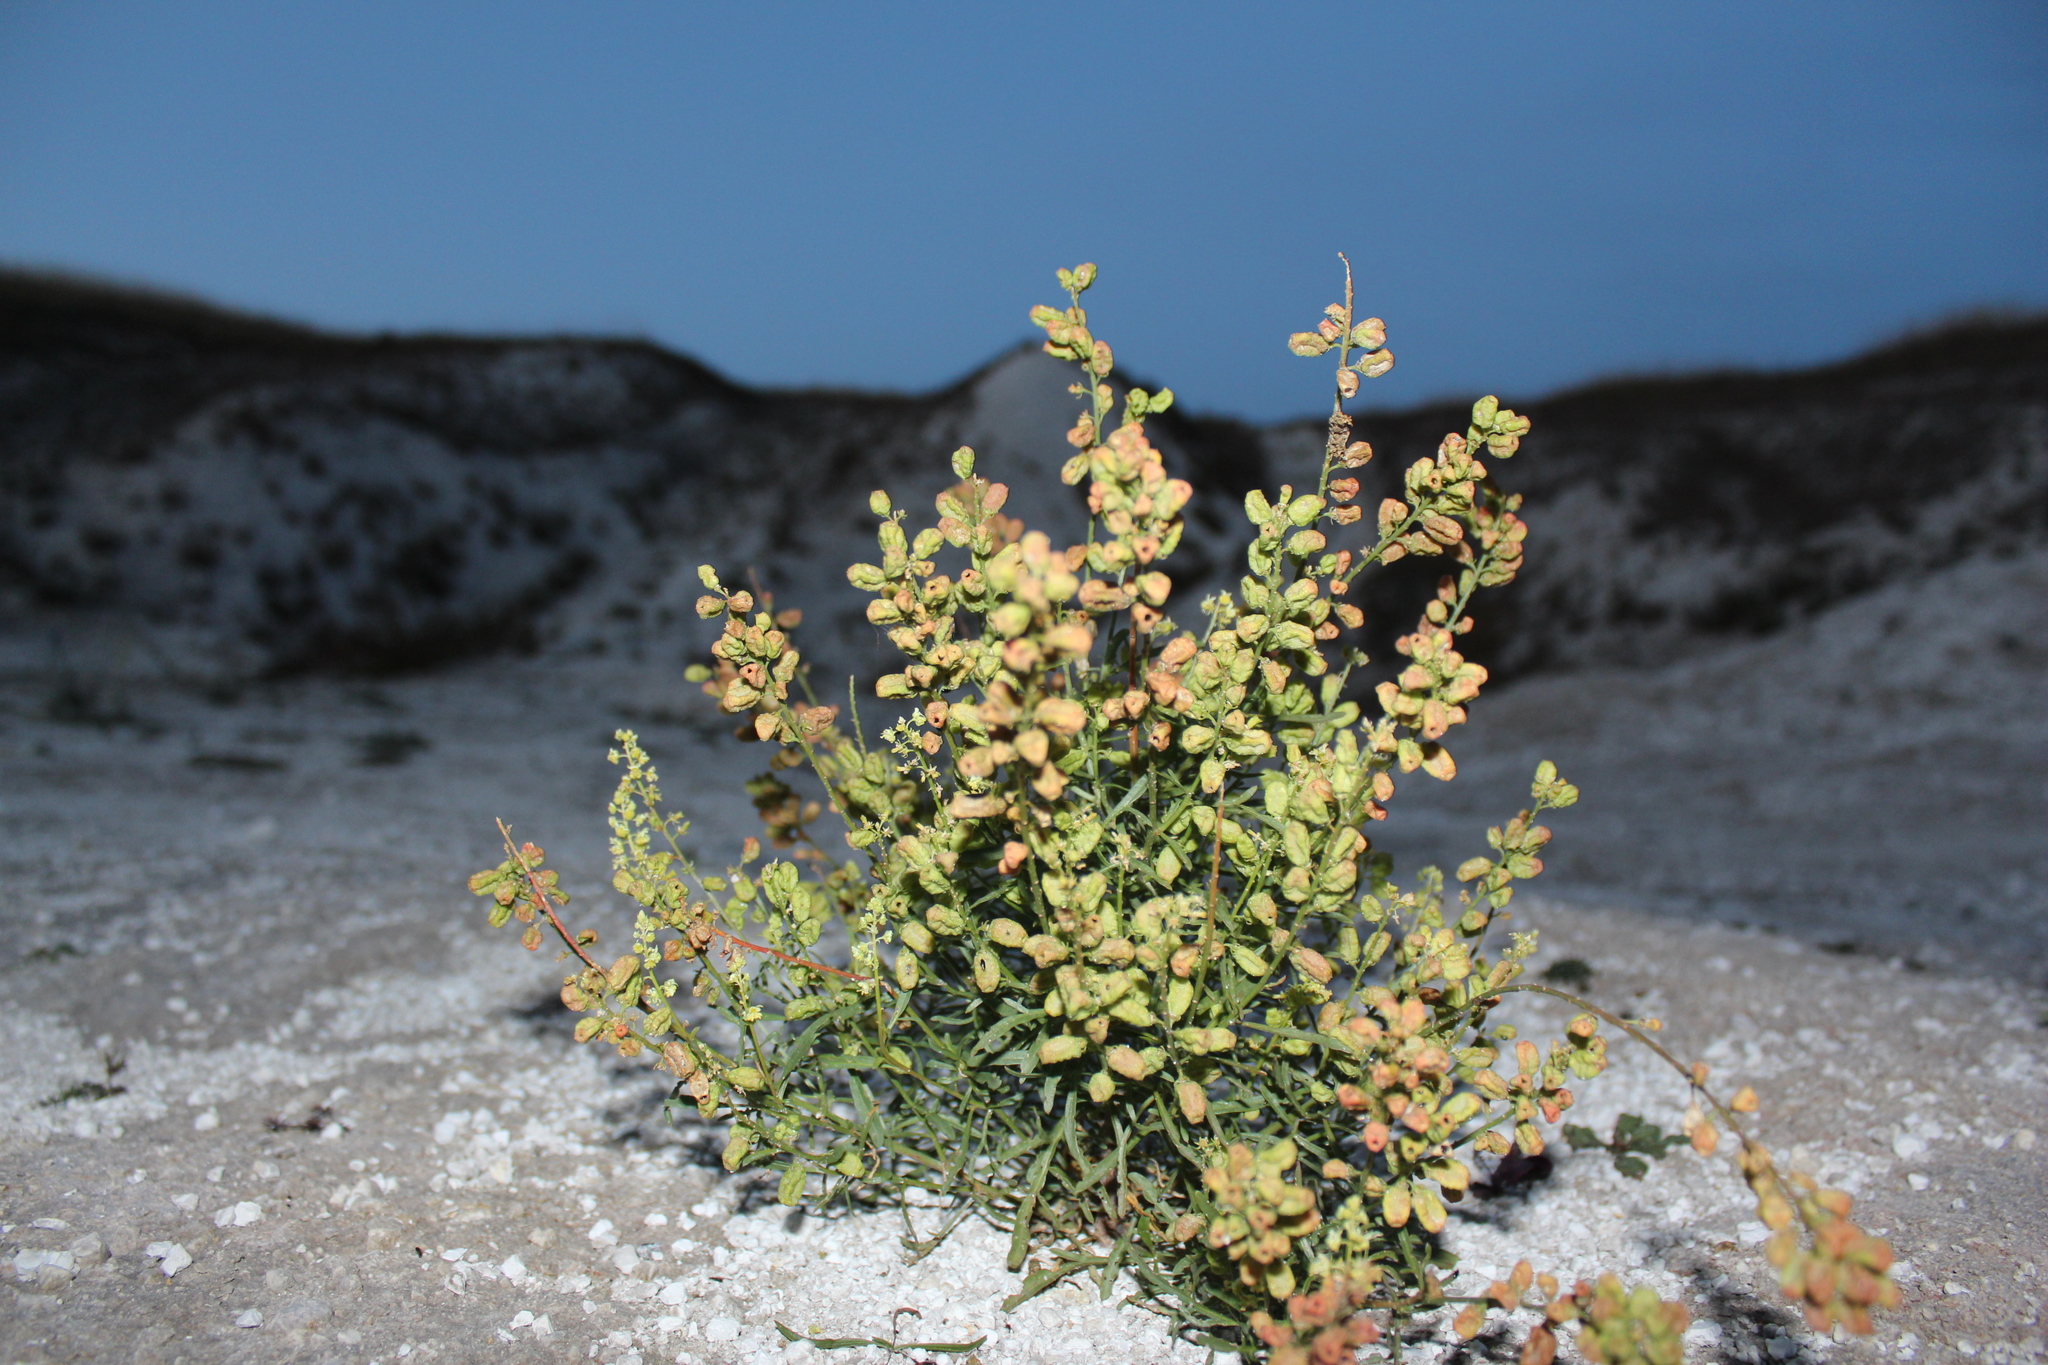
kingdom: Plantae
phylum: Tracheophyta
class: Magnoliopsida
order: Brassicales
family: Resedaceae
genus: Reseda
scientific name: Reseda lutea
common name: Wild mignonette
